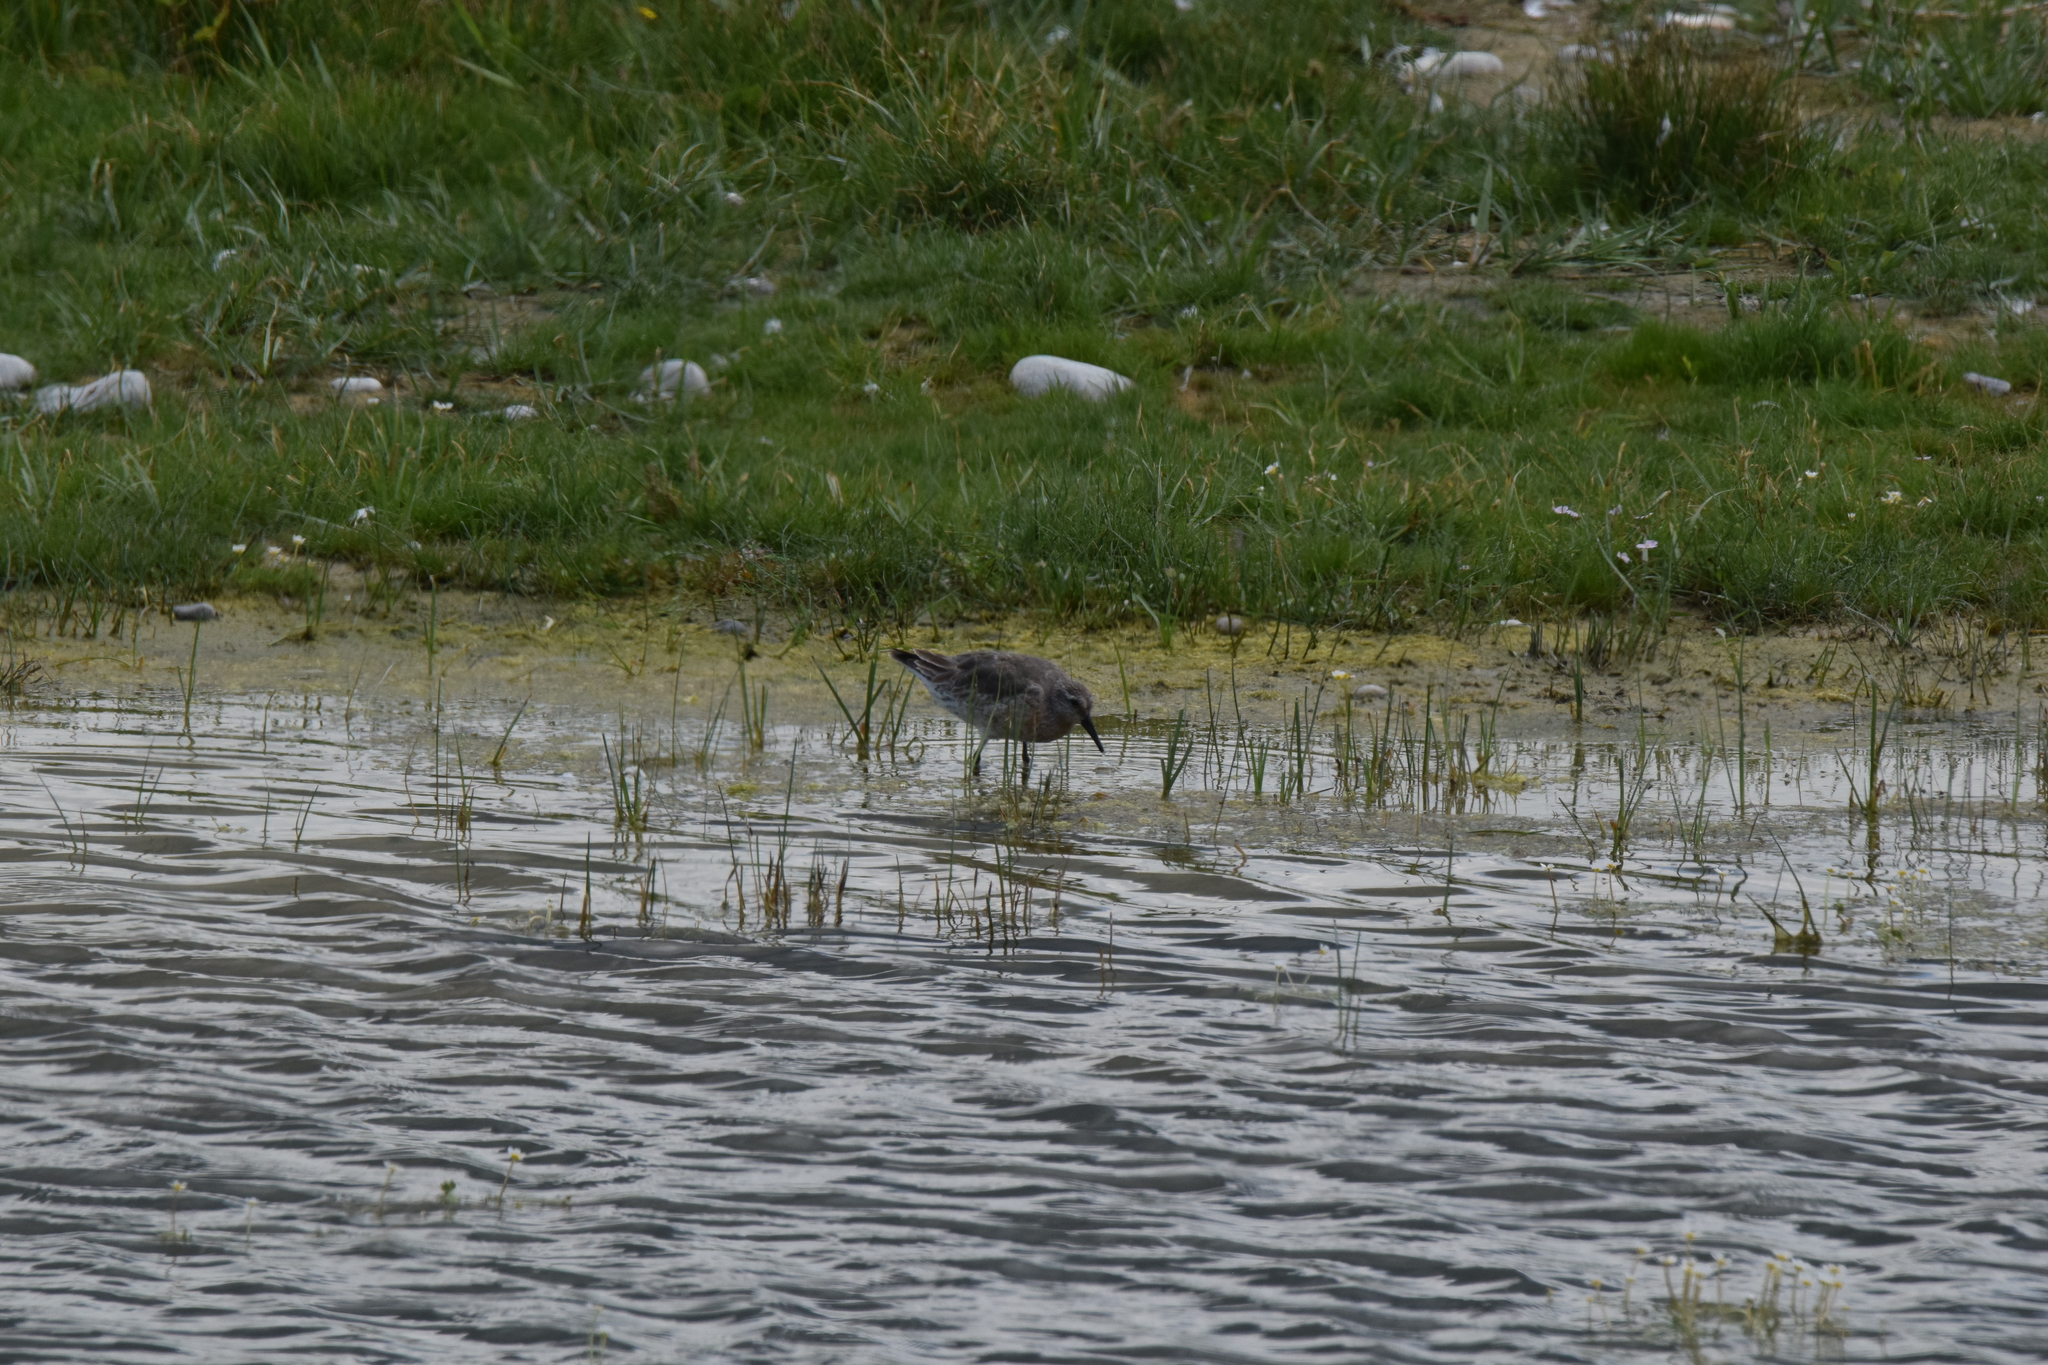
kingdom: Animalia
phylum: Chordata
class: Aves
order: Charadriiformes
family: Scolopacidae
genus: Calidris
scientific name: Calidris canutus
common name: Red knot
